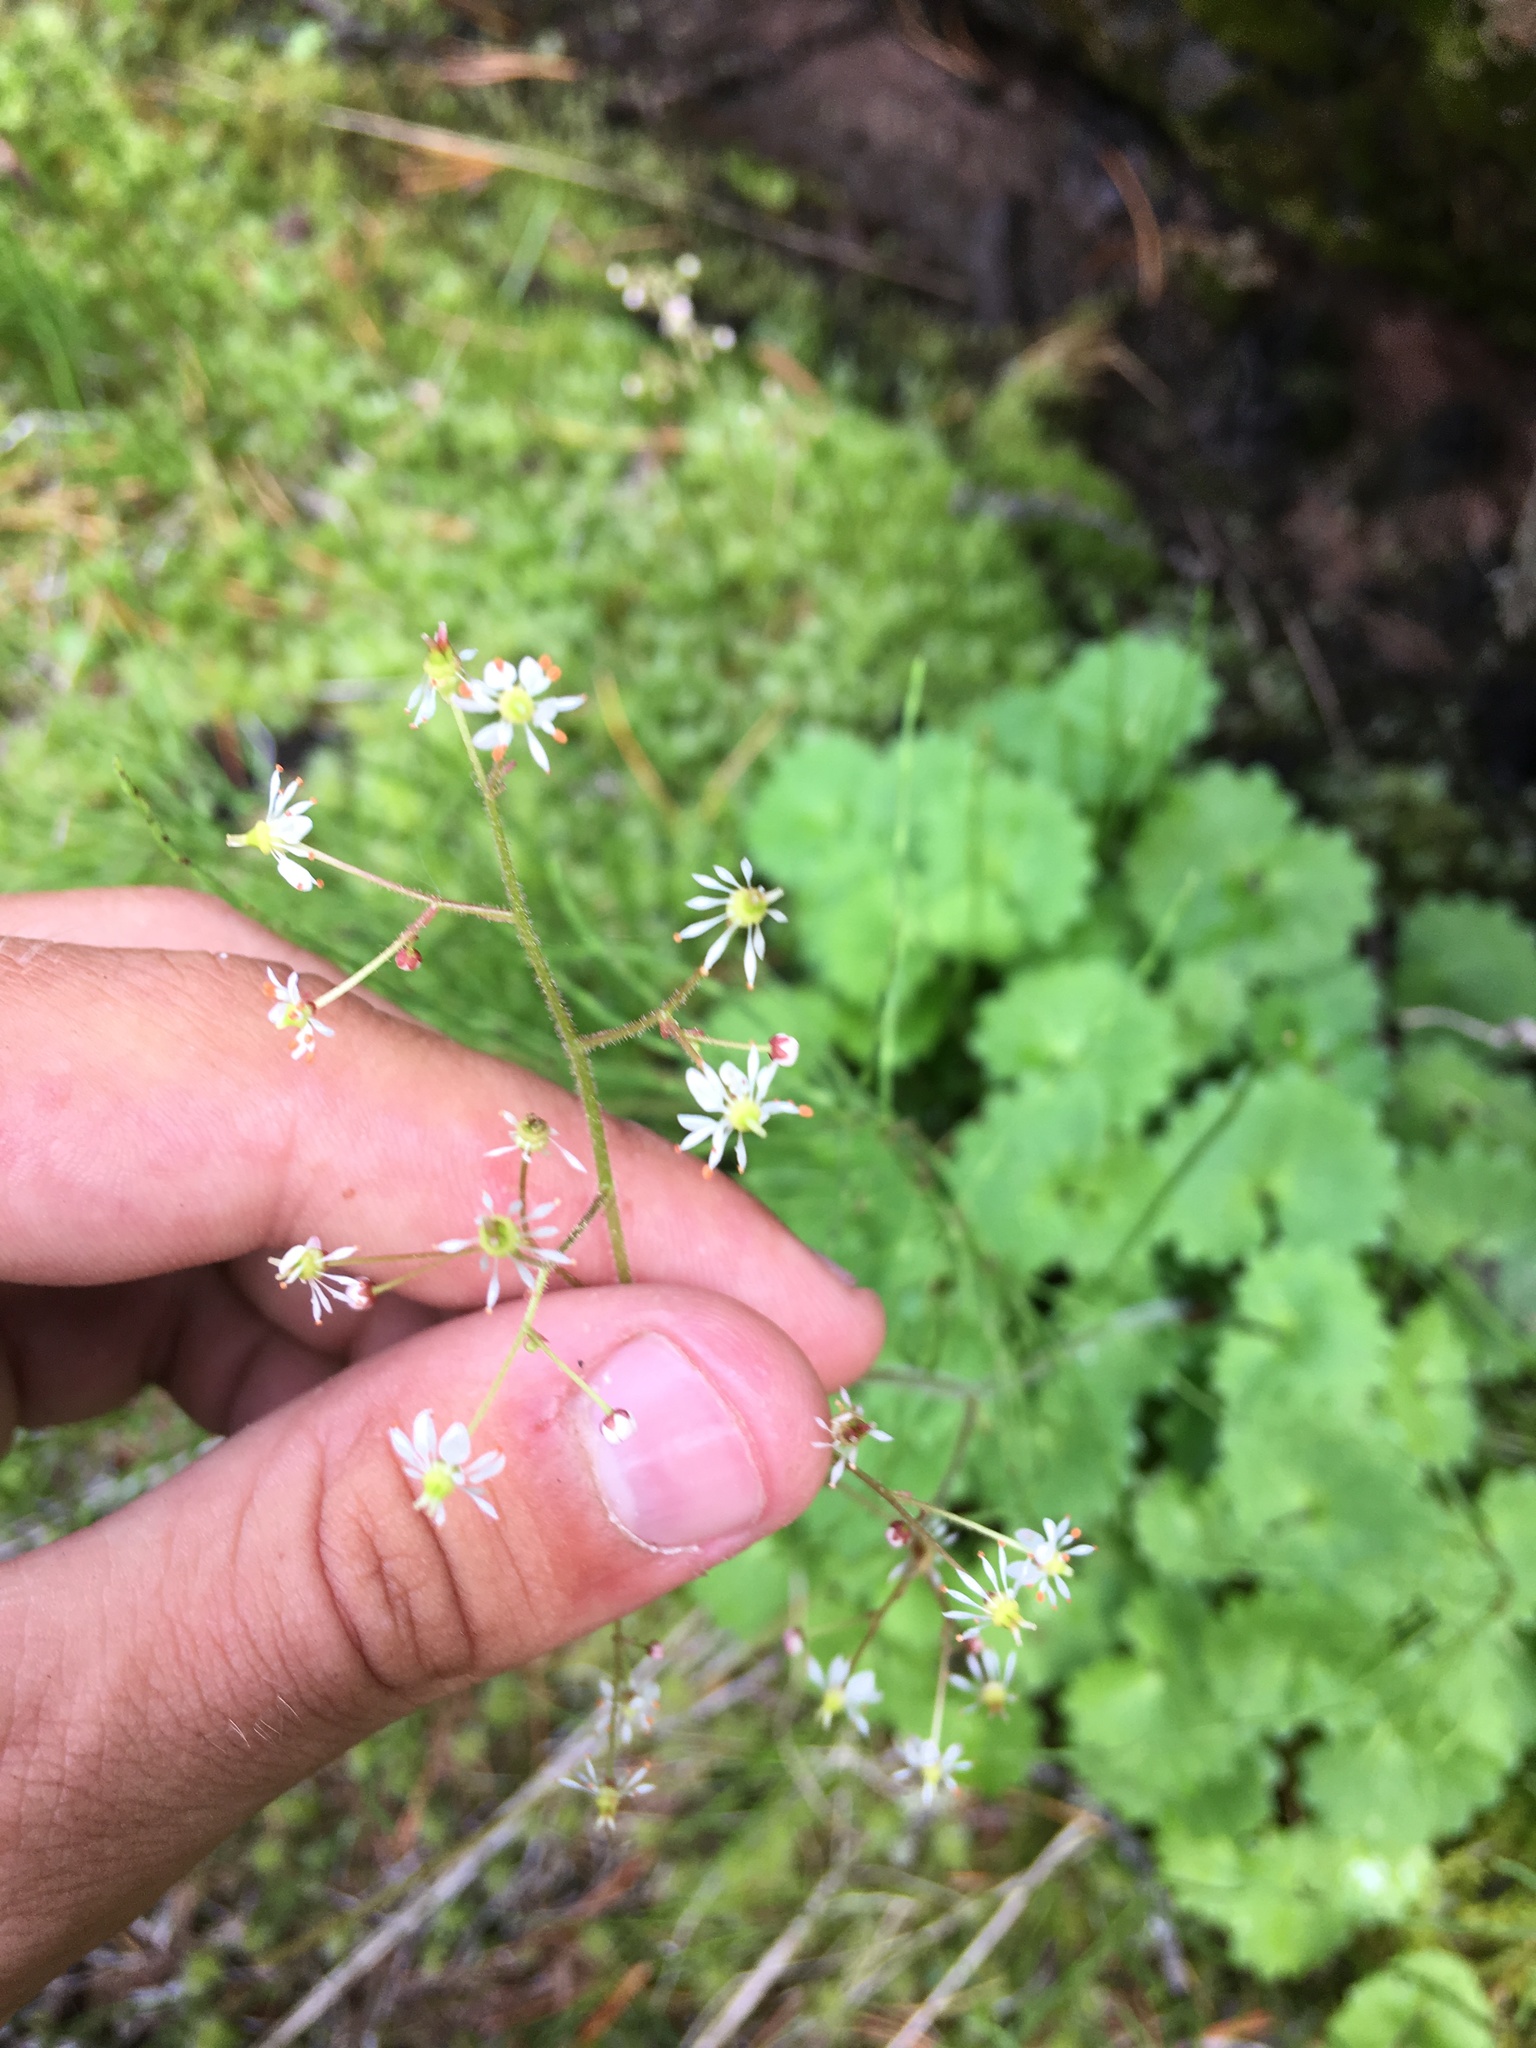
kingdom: Plantae
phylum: Tracheophyta
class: Magnoliopsida
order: Saxifragales
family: Saxifragaceae
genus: Micranthes
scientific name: Micranthes nelsoniana
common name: Nelson's saxifrage
